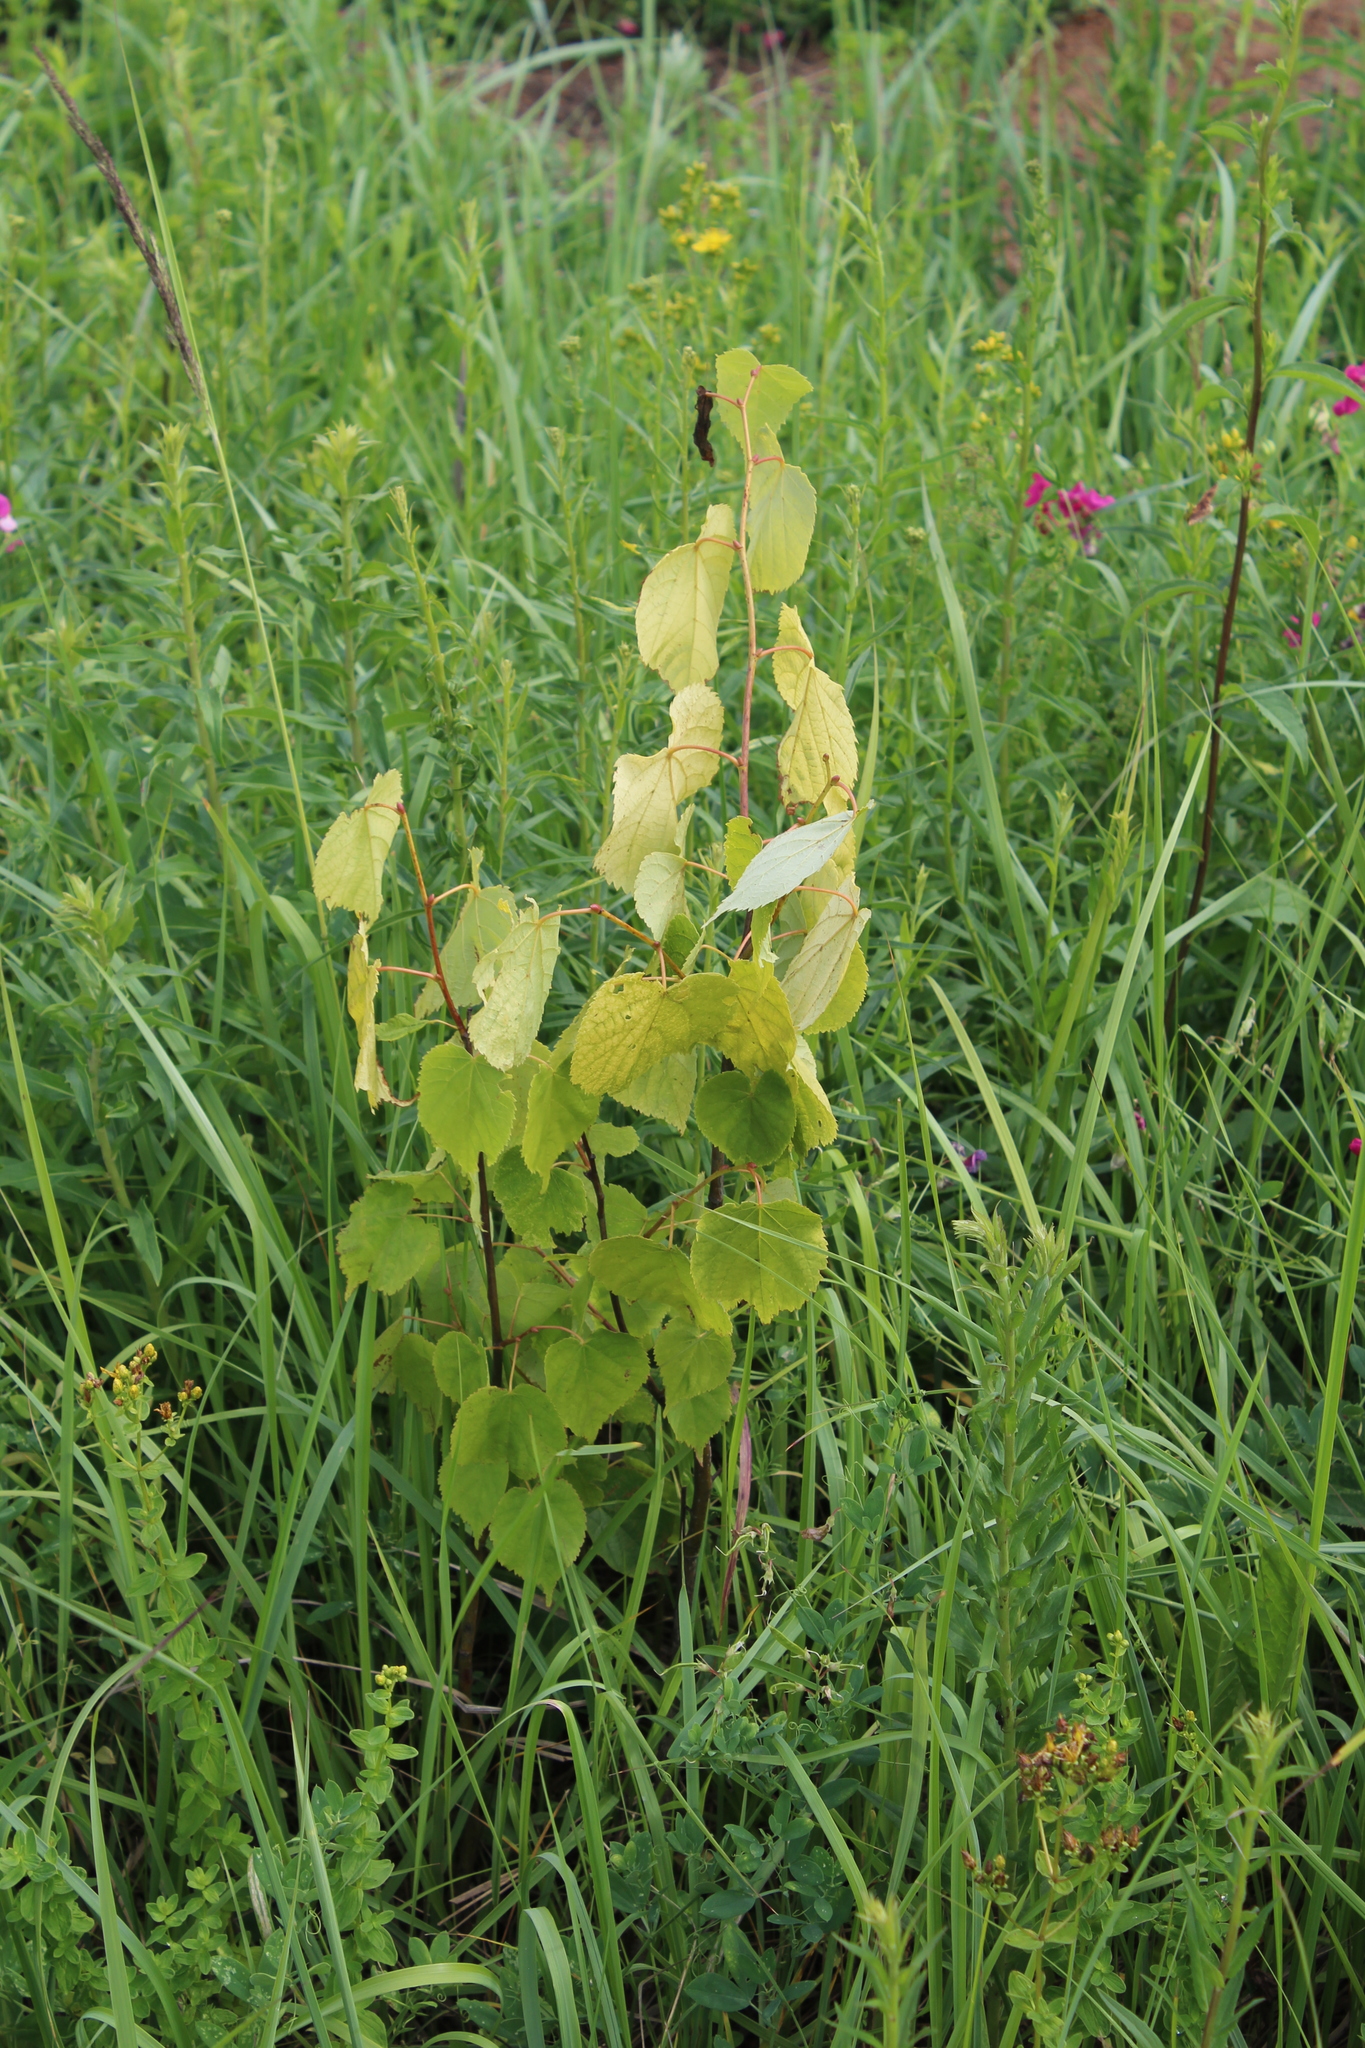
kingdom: Plantae
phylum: Tracheophyta
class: Magnoliopsida
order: Malvales
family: Malvaceae
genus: Tilia
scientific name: Tilia cordata
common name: Small-leaved lime
